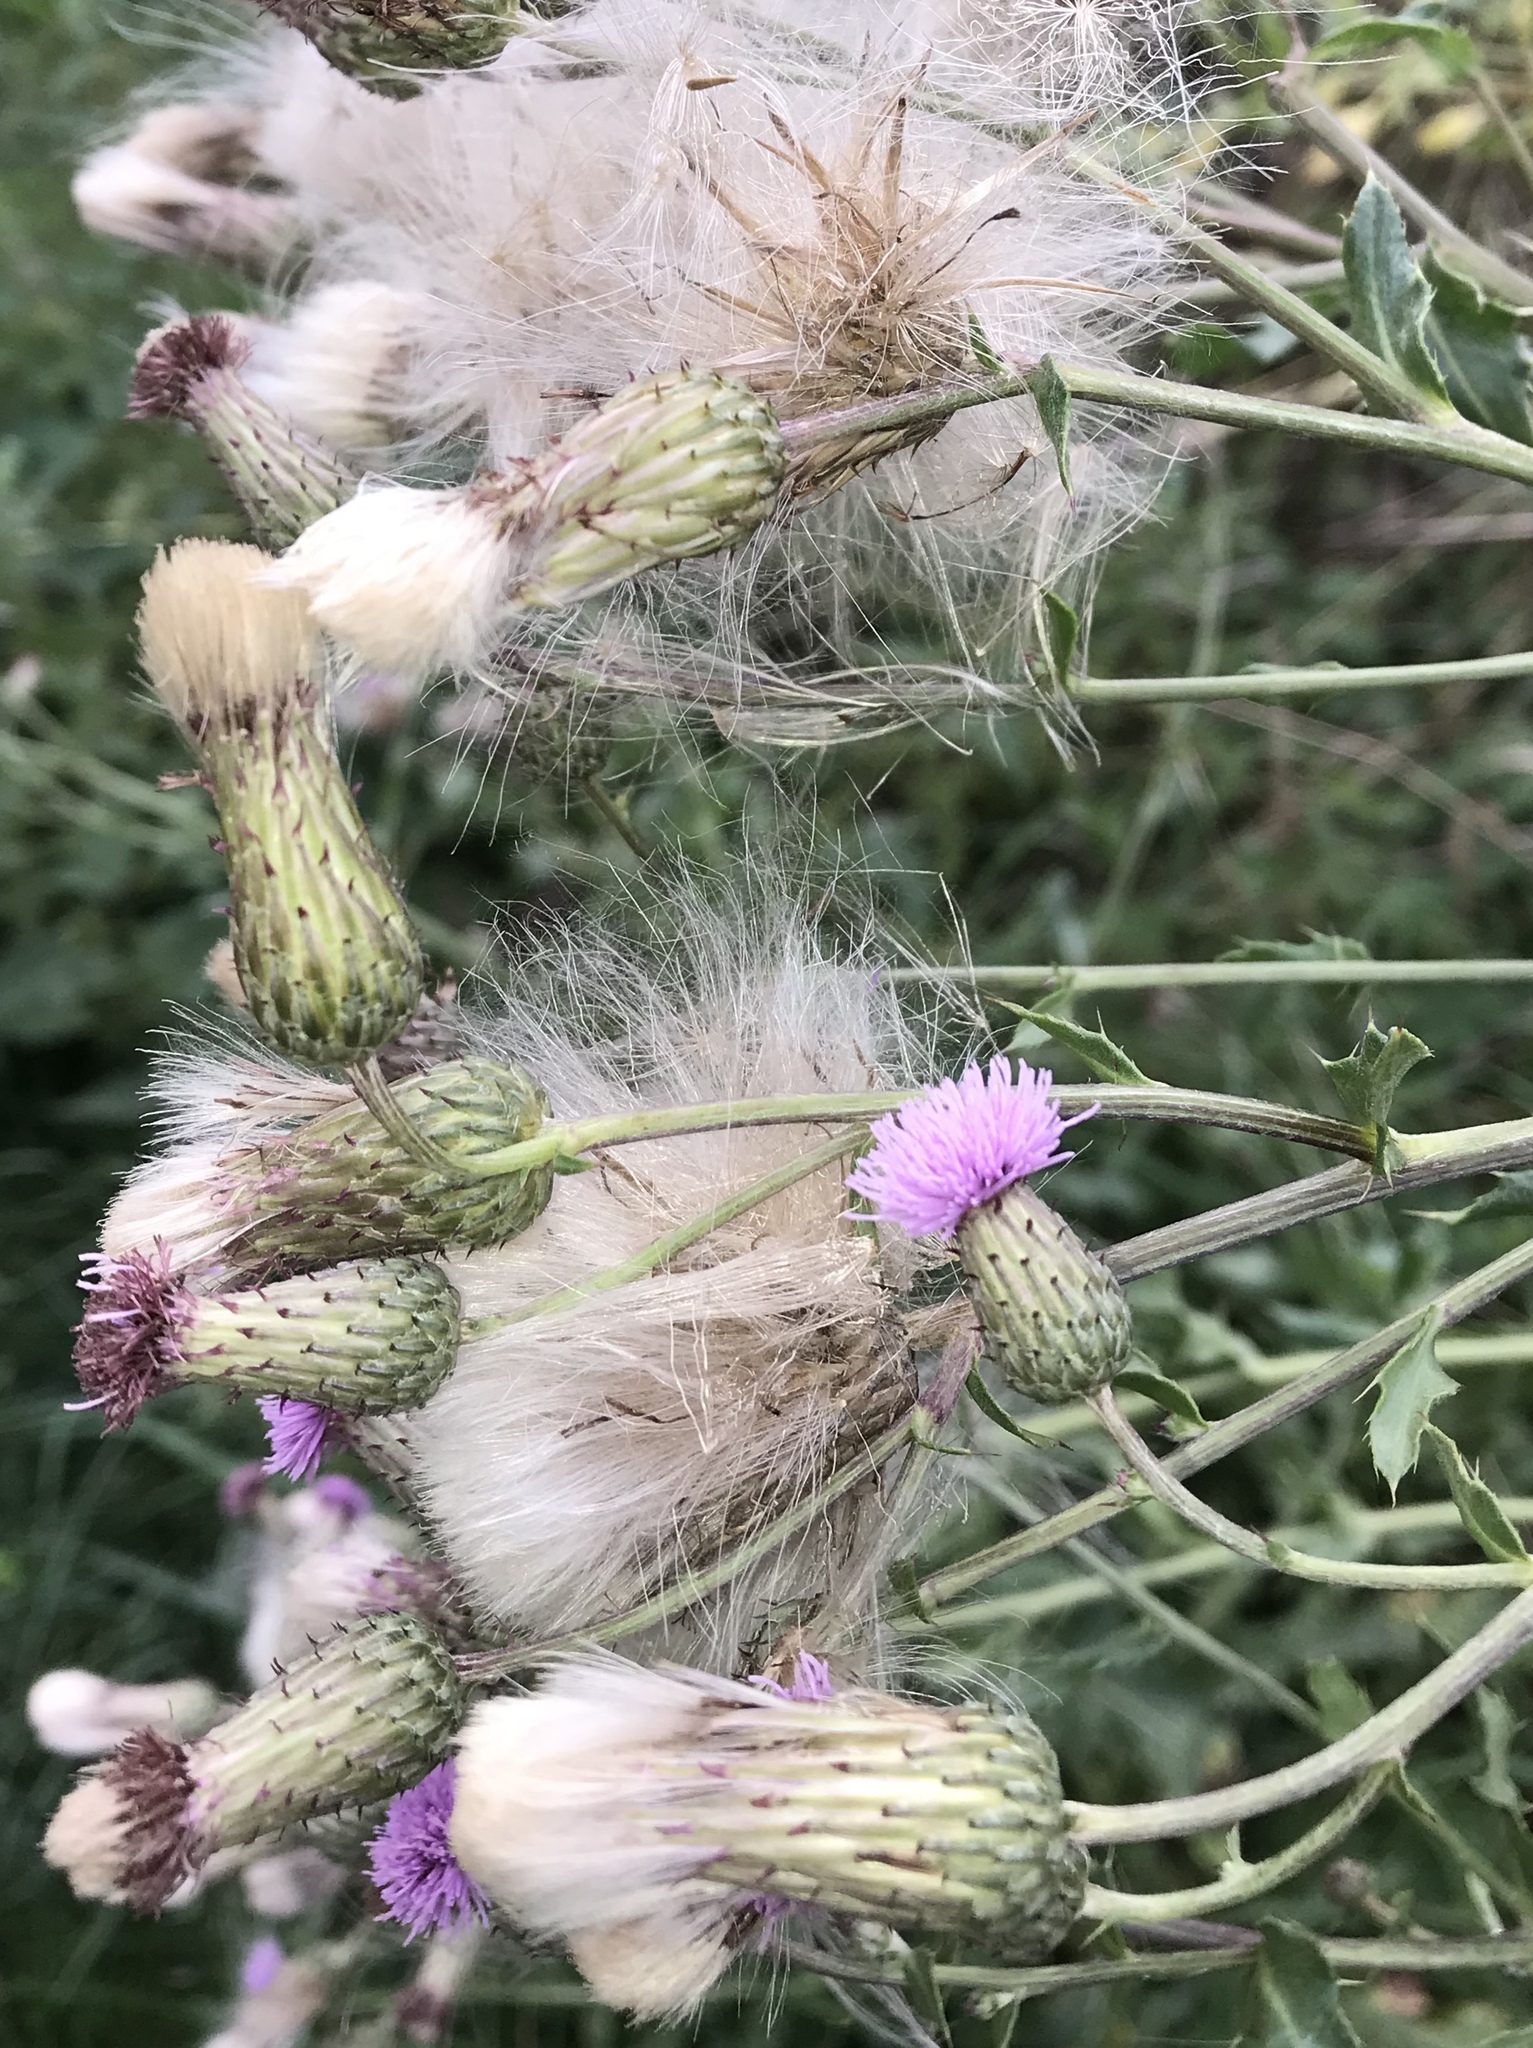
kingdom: Plantae
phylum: Tracheophyta
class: Magnoliopsida
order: Asterales
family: Asteraceae
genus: Cirsium
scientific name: Cirsium arvense
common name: Creeping thistle
